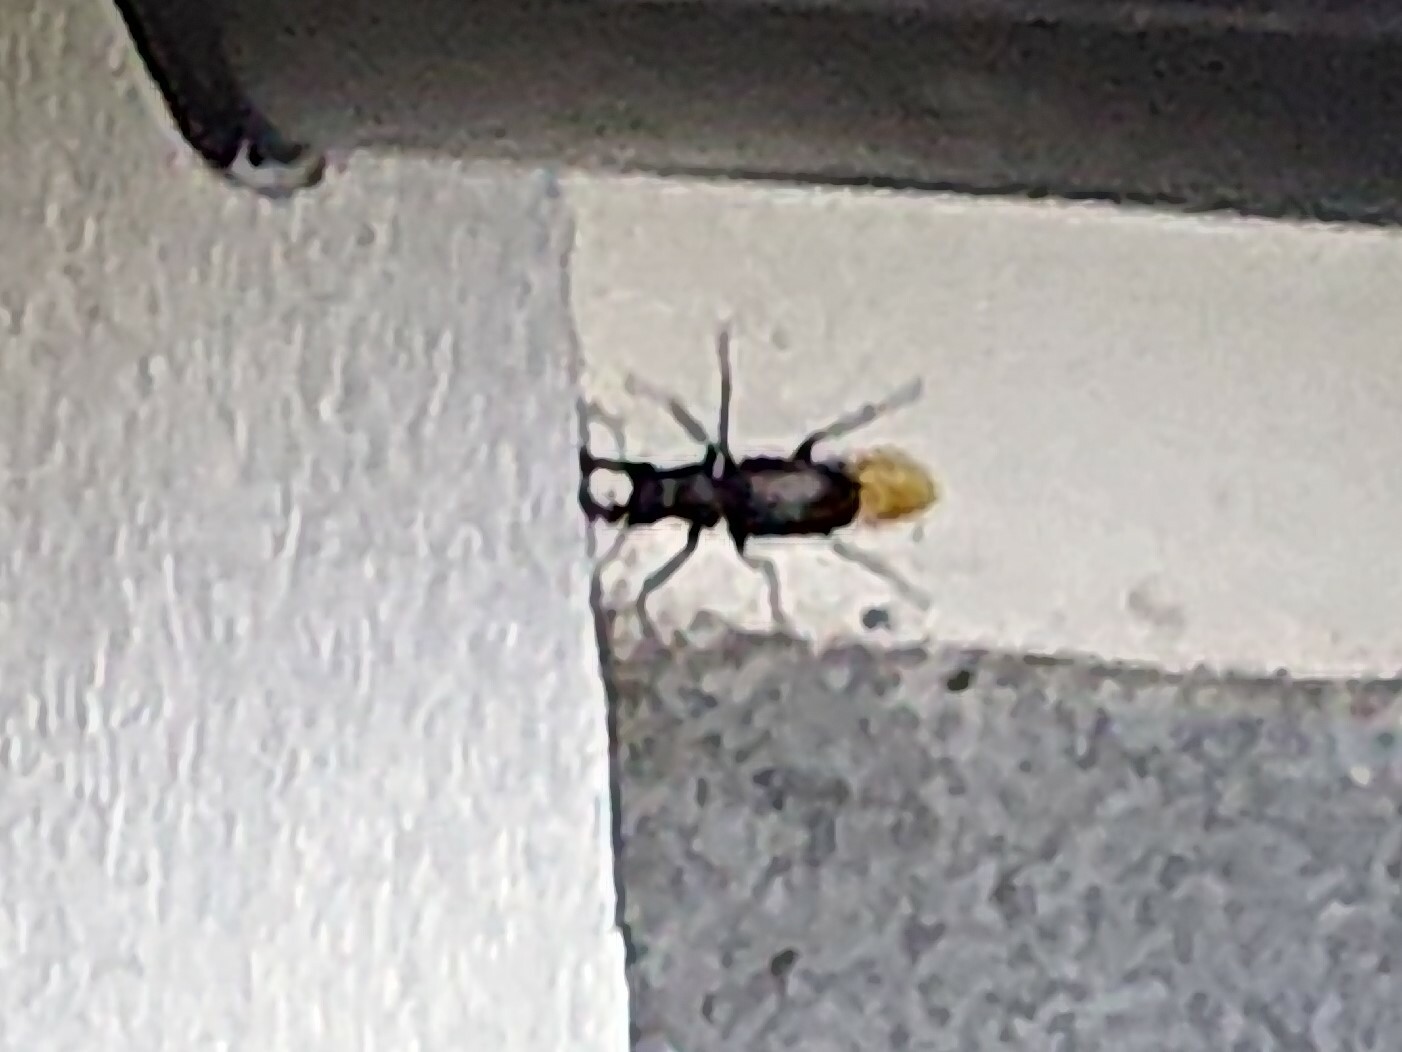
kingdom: Animalia
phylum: Arthropoda
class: Insecta
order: Coleoptera
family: Lucanidae
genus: Lucanus
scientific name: Lucanus cervus
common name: Stag beetle
